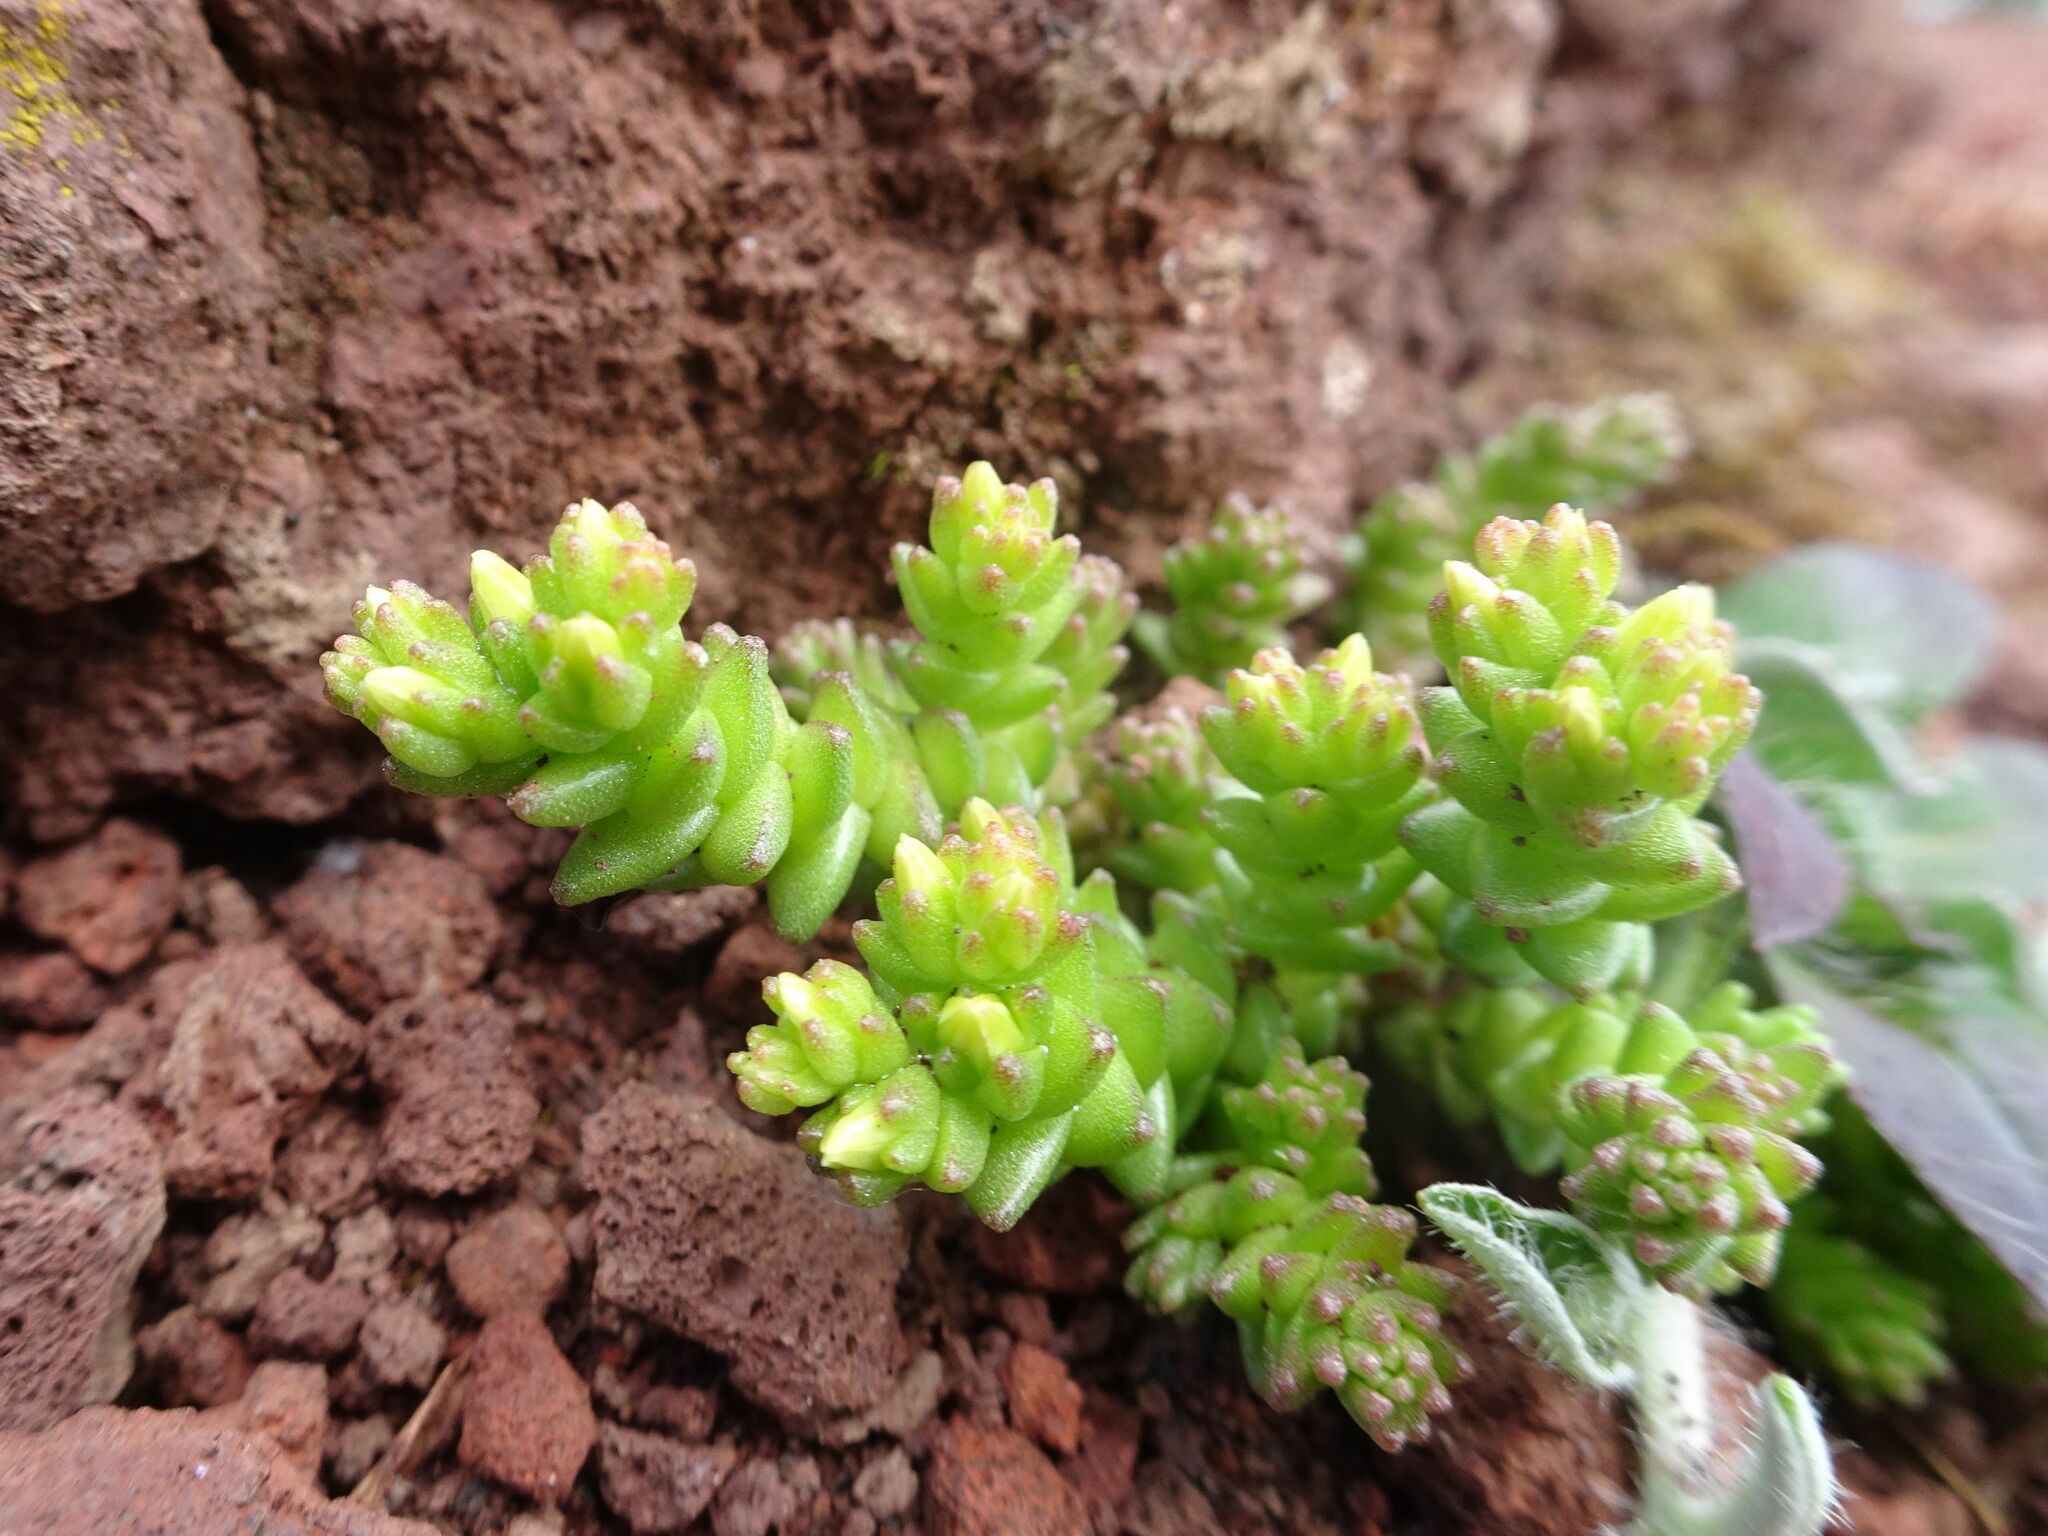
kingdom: Plantae
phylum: Tracheophyta
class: Magnoliopsida
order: Saxifragales
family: Crassulaceae
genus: Sedum
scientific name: Sedum acre
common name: Biting stonecrop
